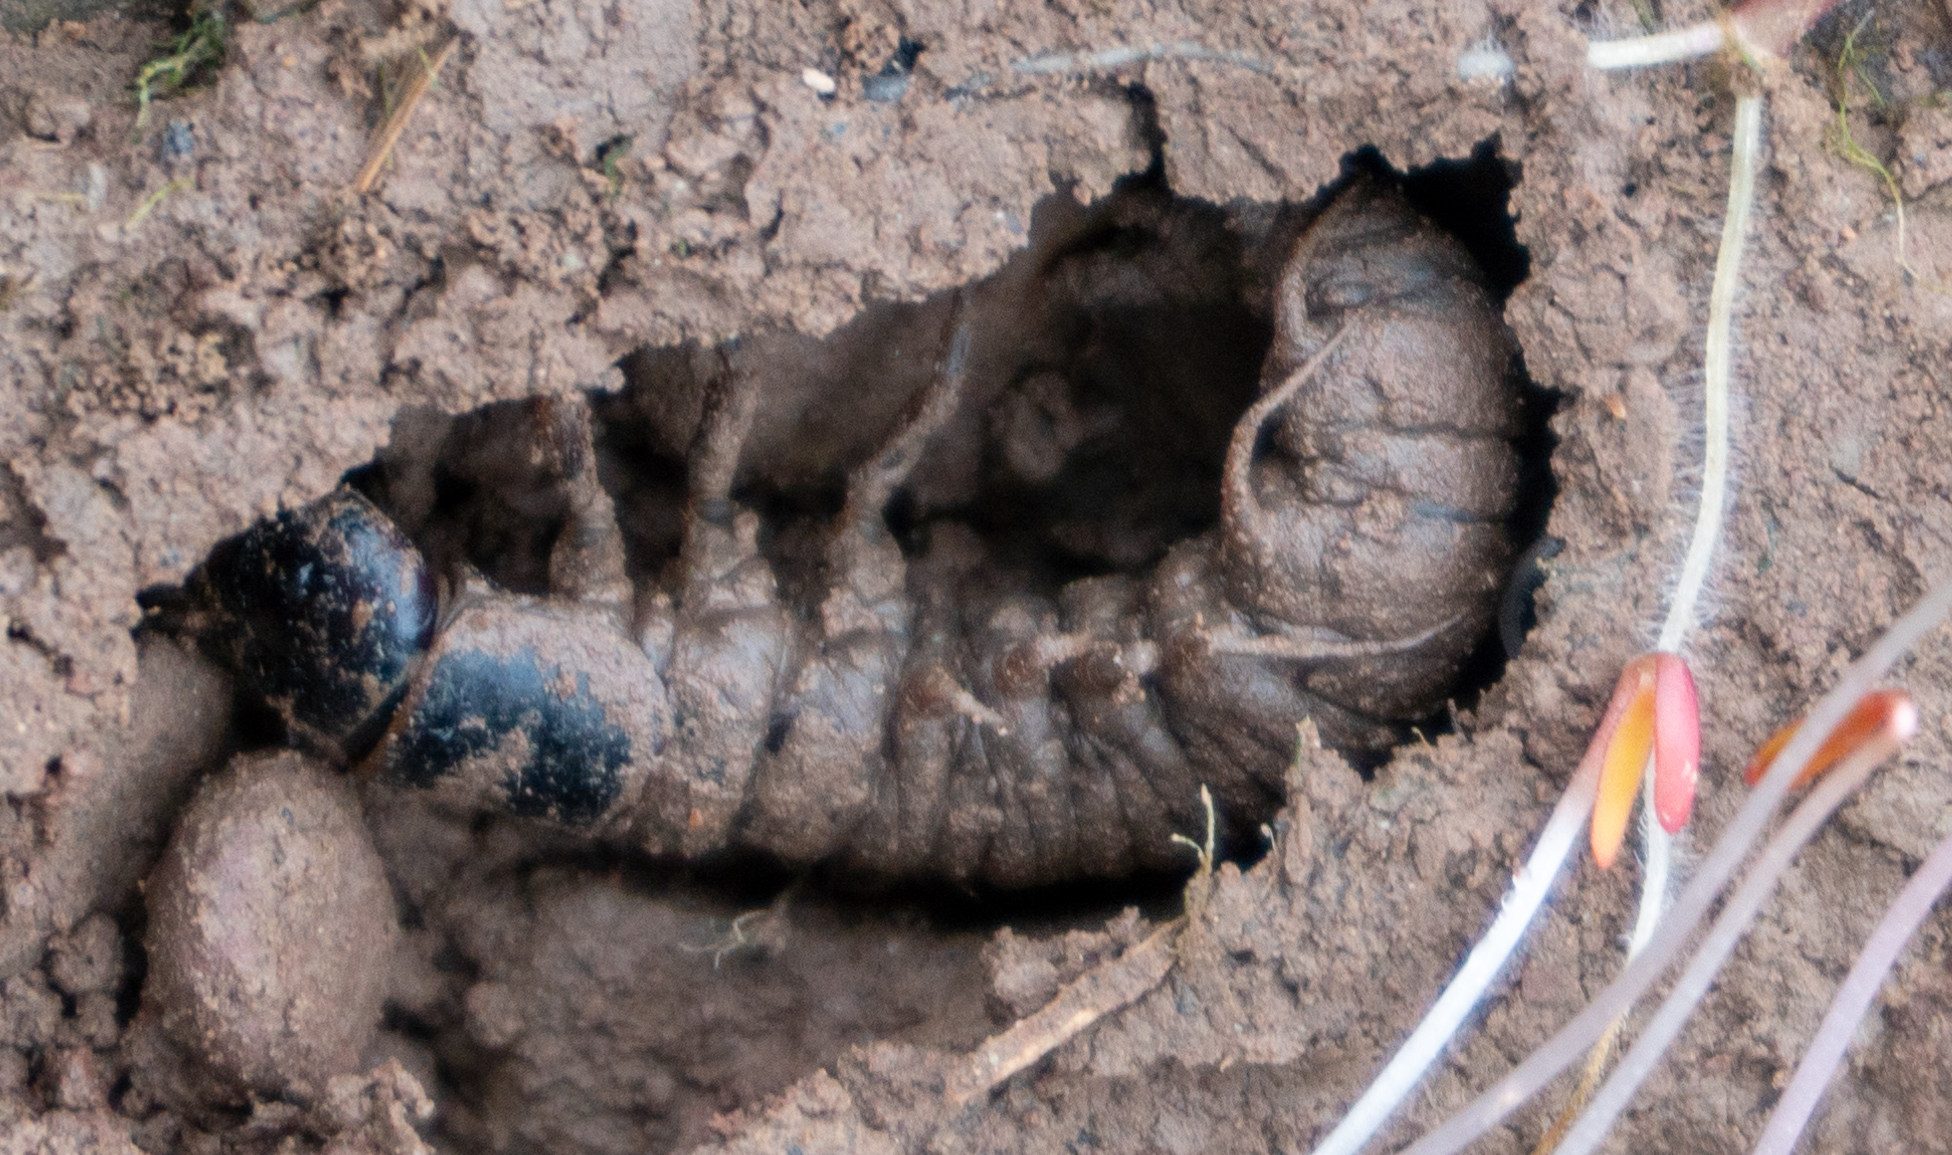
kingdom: Animalia
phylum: Arthropoda
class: Insecta
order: Megaloptera
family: Corydalidae
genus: Nigronia
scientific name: Nigronia serricornis
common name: Serrate dark fishfly
